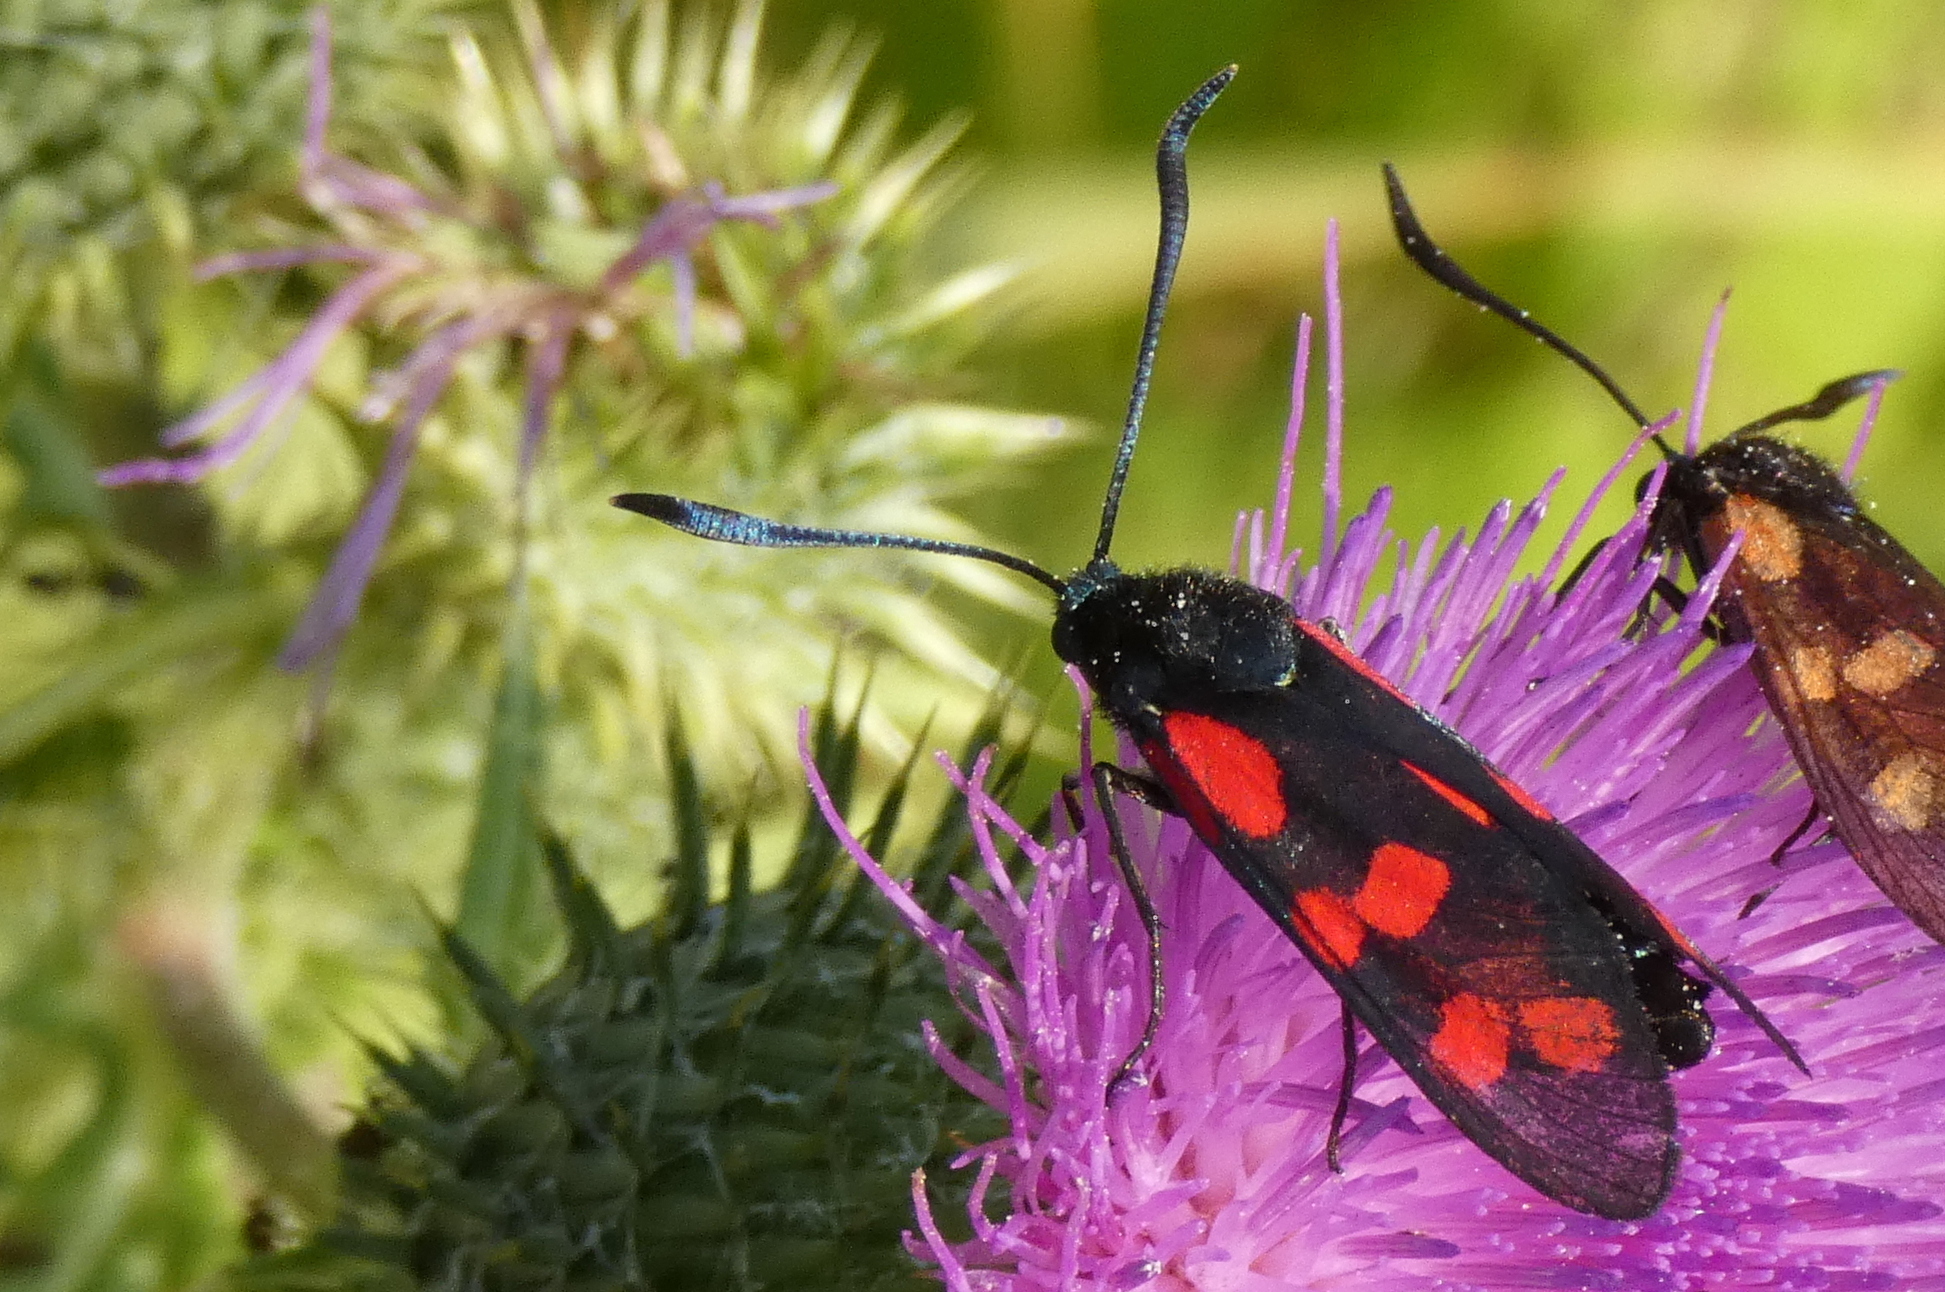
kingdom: Animalia
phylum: Arthropoda
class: Insecta
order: Lepidoptera
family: Zygaenidae
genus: Zygaena
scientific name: Zygaena filipendulae
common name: Six-spot burnet
